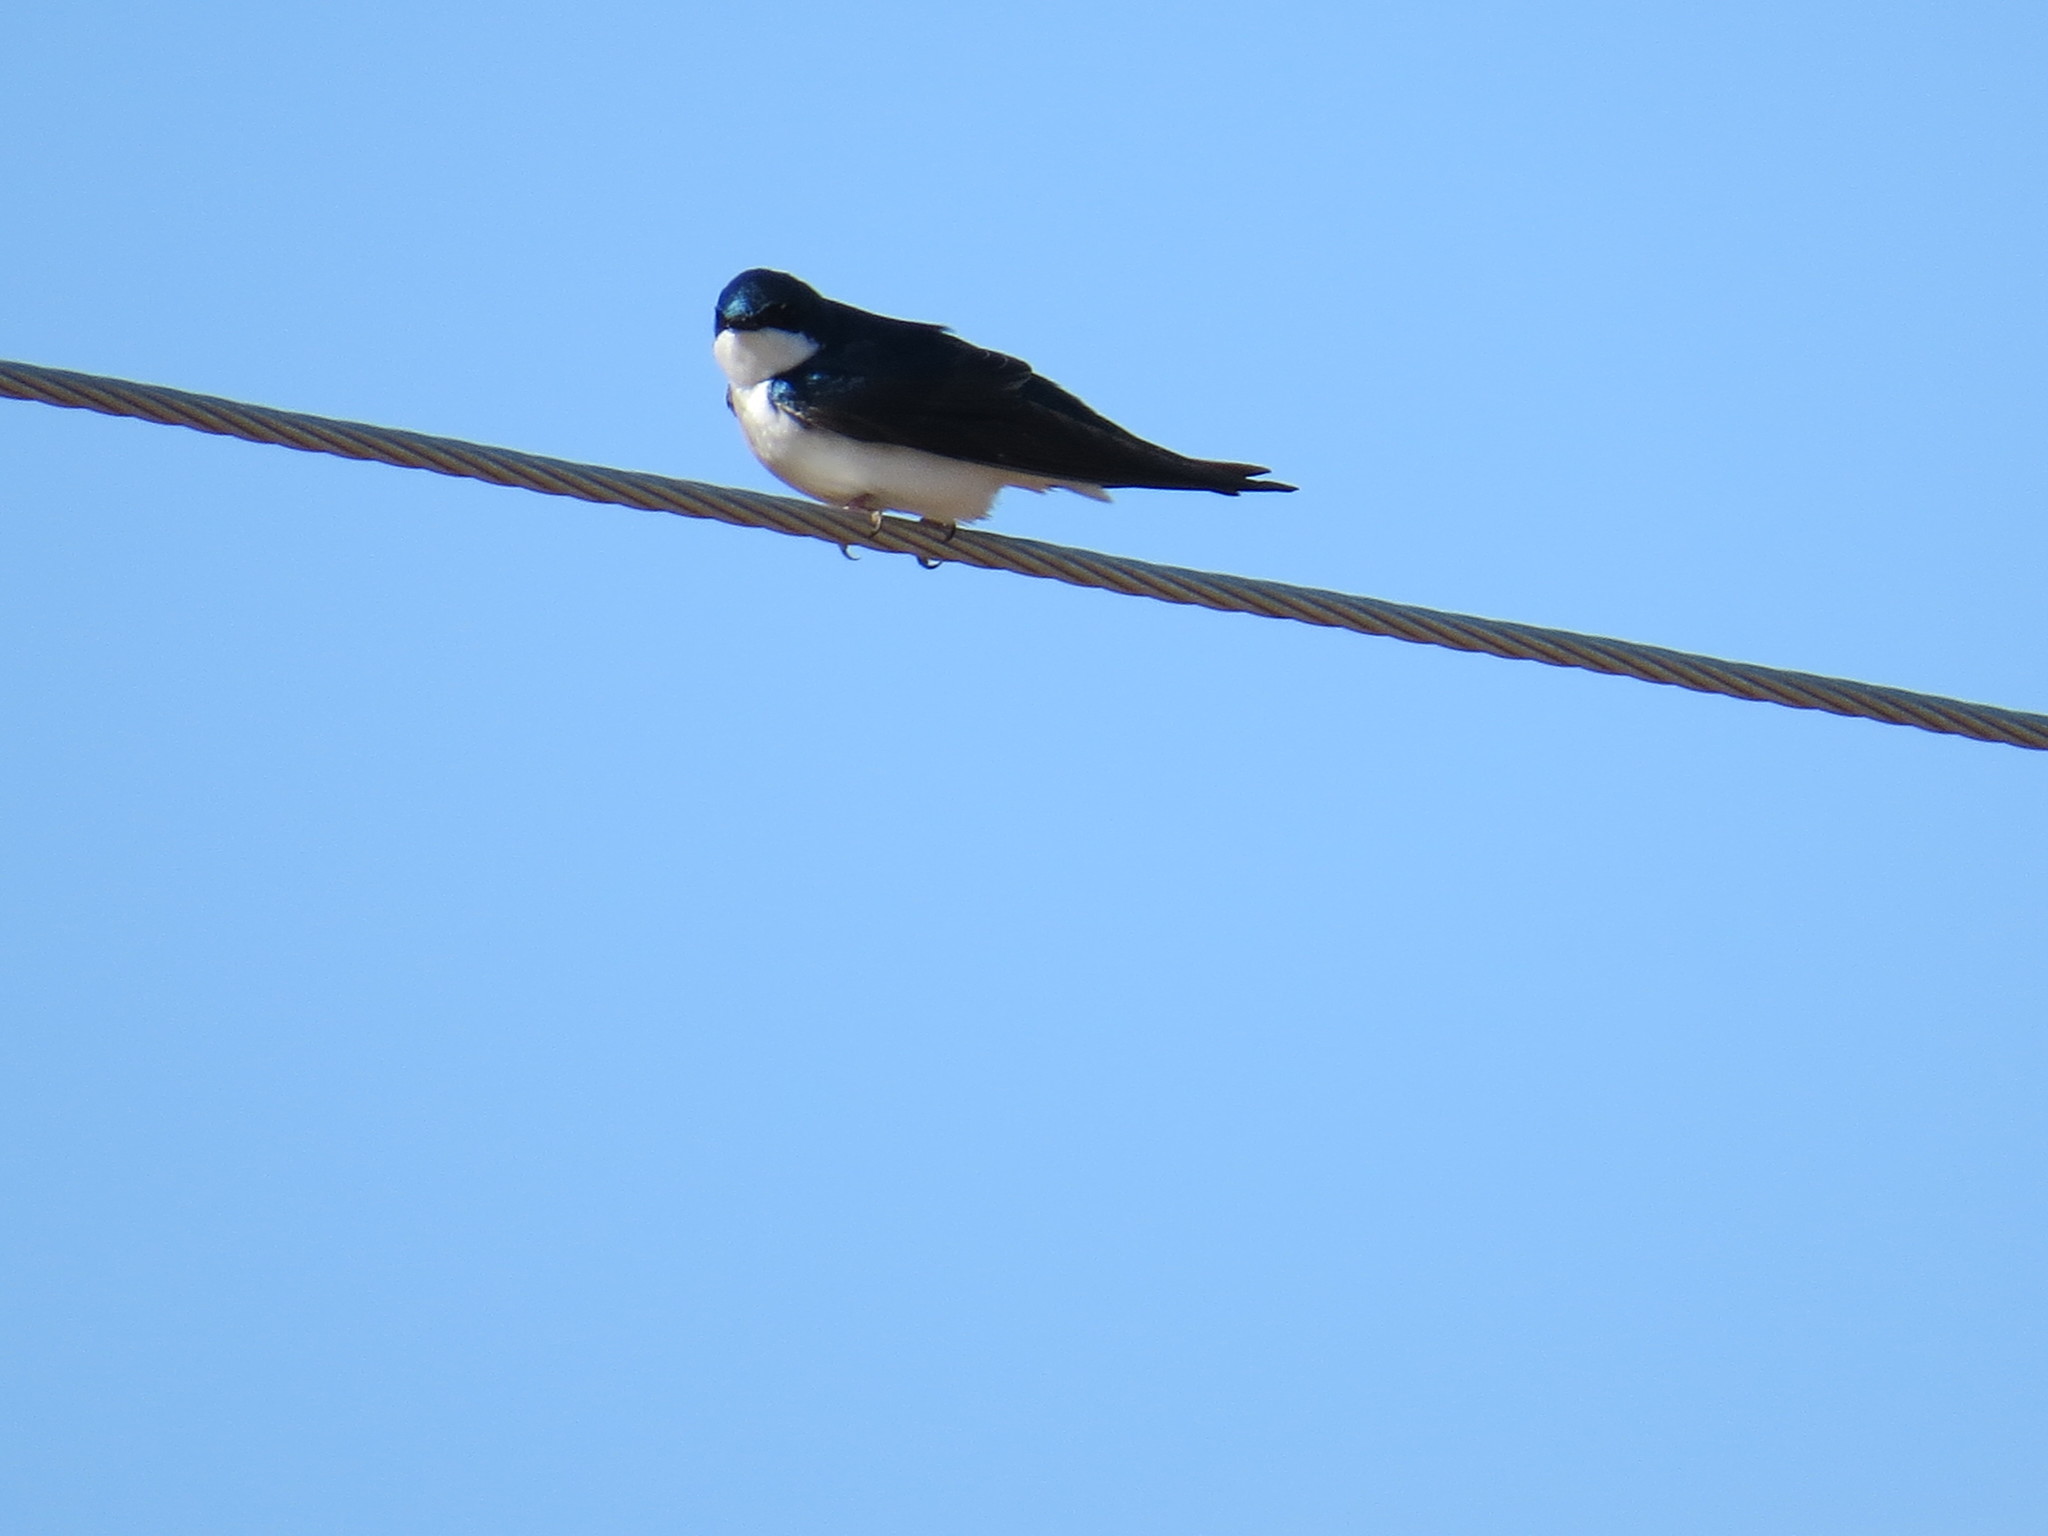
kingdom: Animalia
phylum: Chordata
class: Aves
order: Passeriformes
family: Hirundinidae
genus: Tachycineta
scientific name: Tachycineta bicolor
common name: Tree swallow
